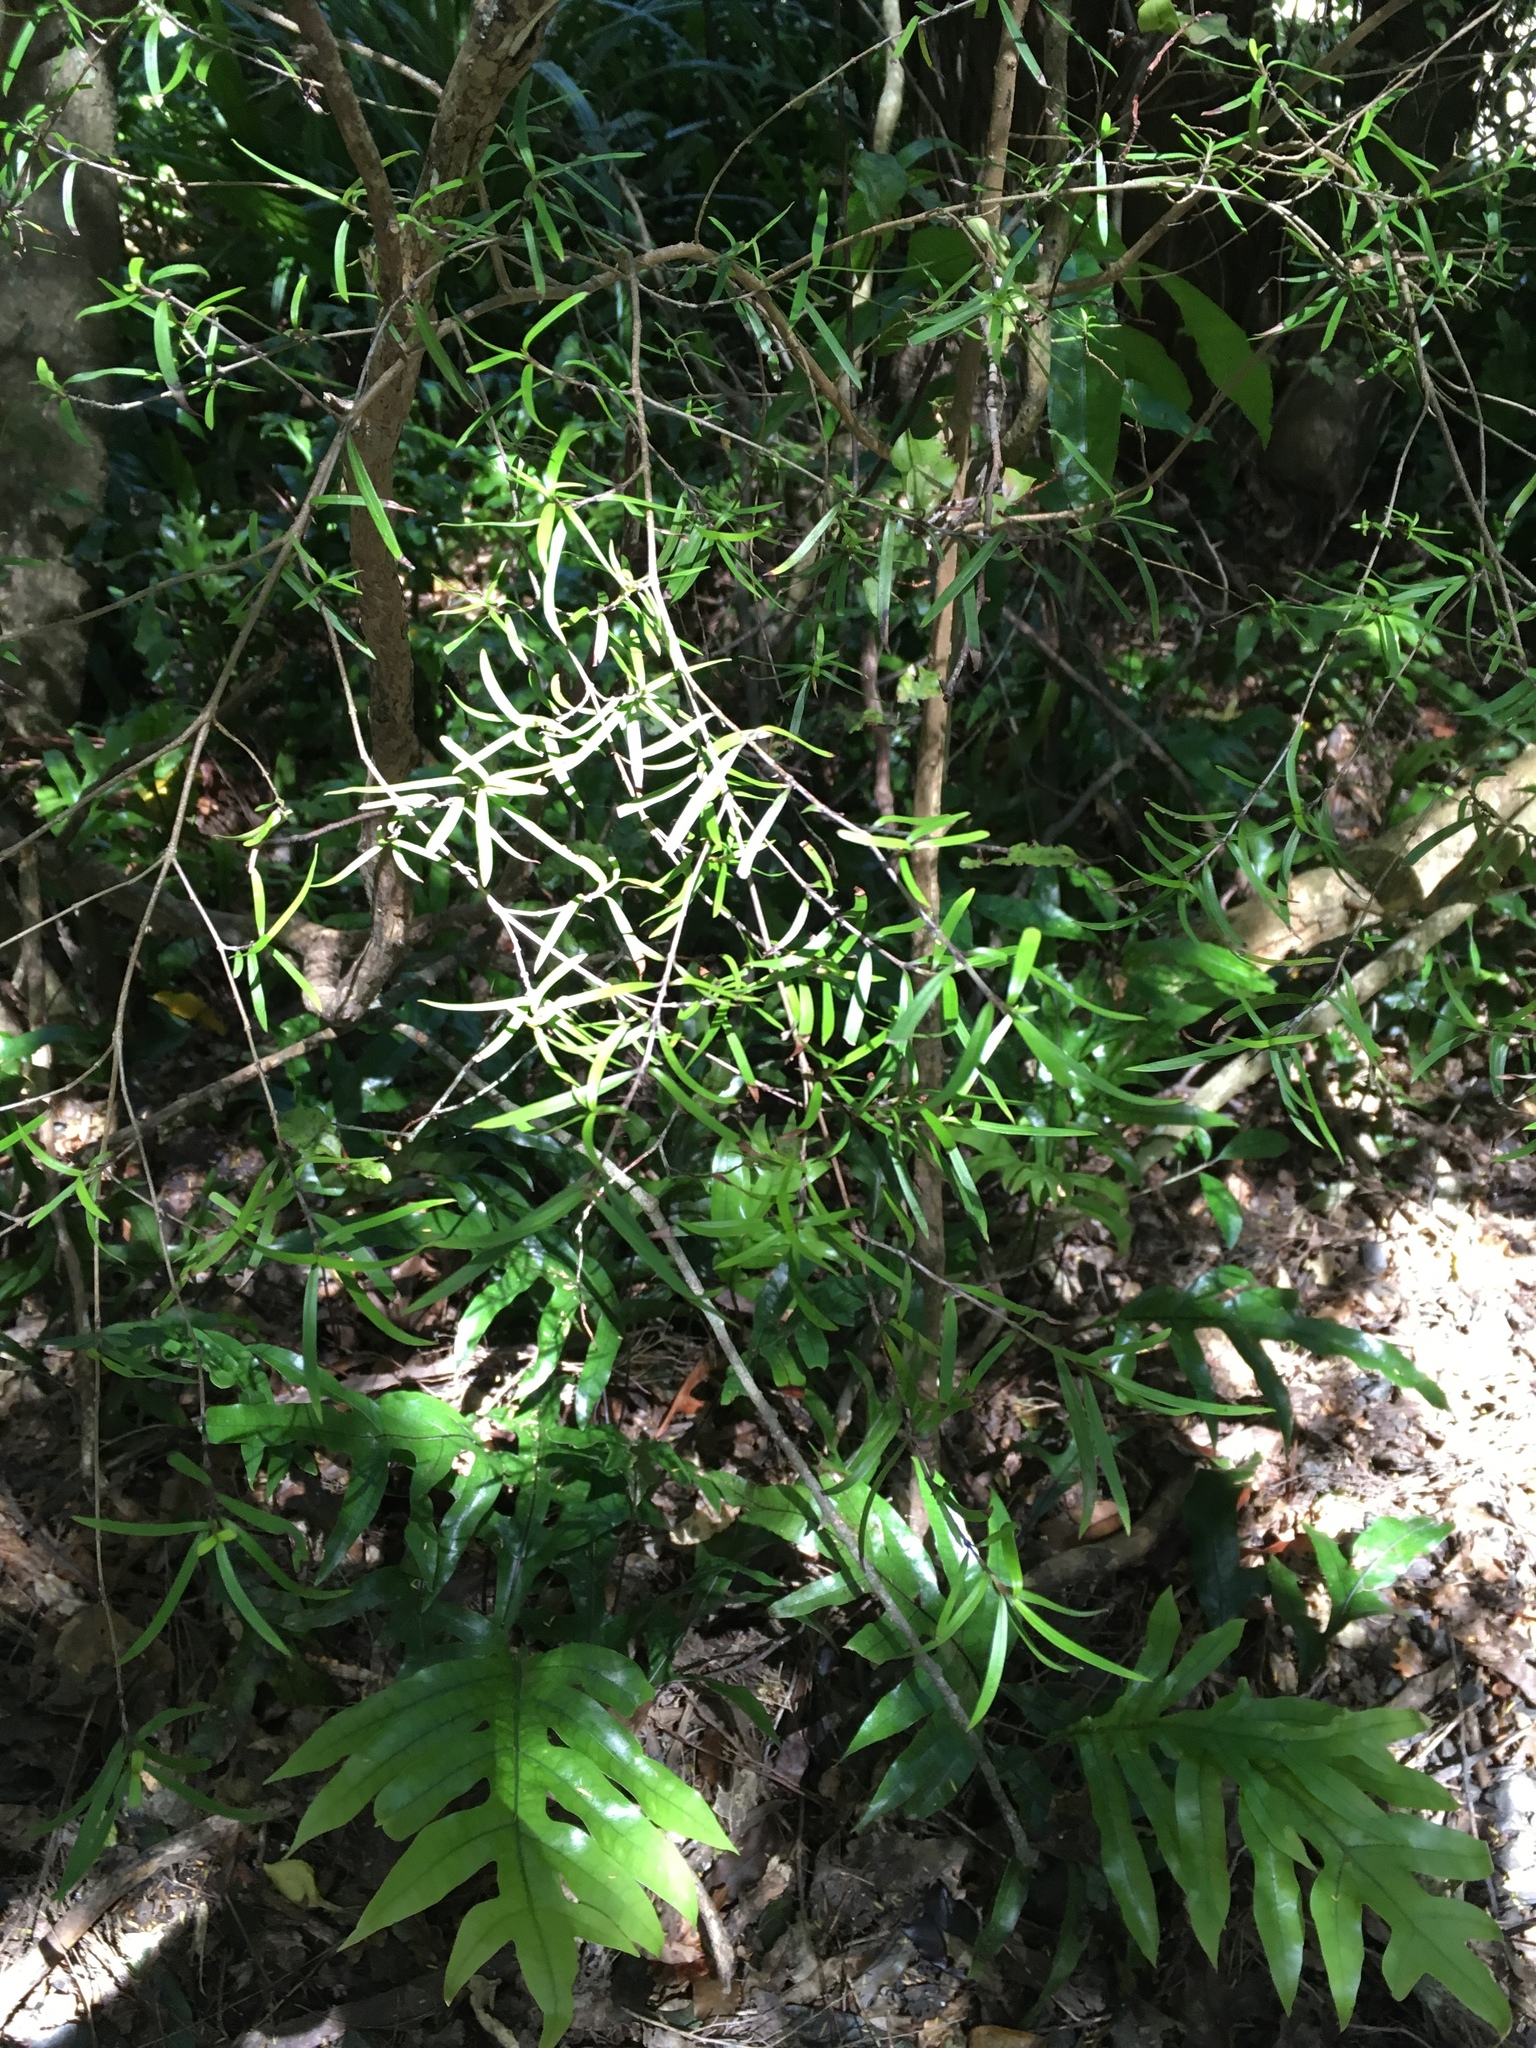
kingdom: Plantae
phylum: Tracheophyta
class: Magnoliopsida
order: Gentianales
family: Rubiaceae
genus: Coprosma
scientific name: Coprosma linariifolia
